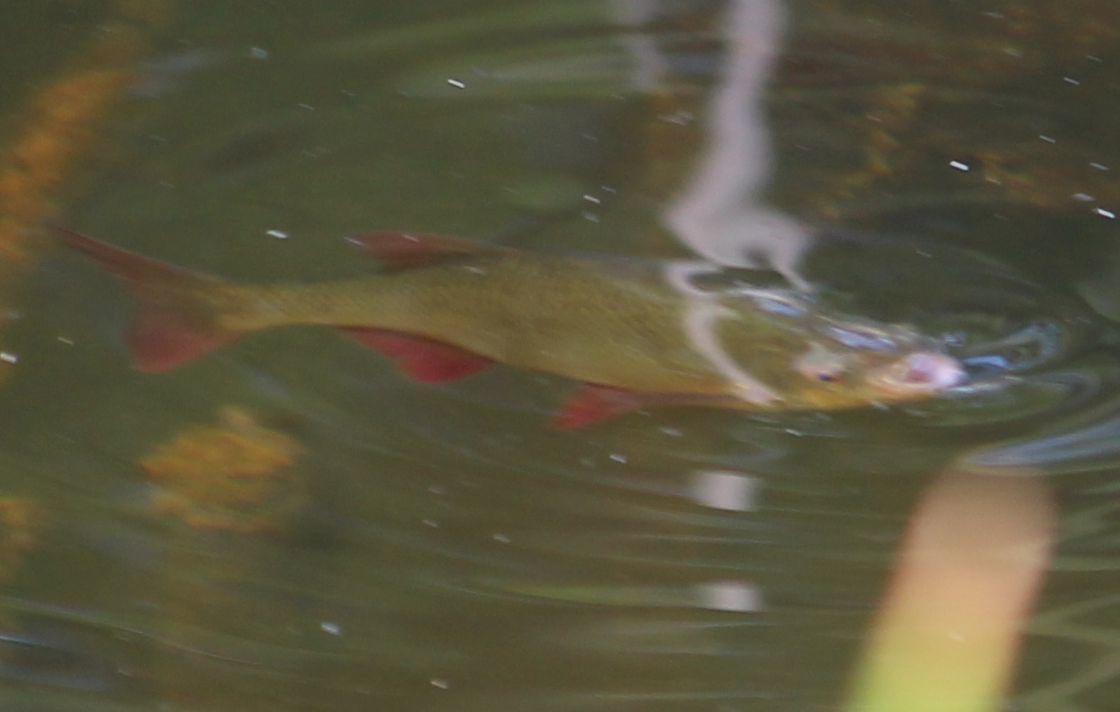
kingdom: Animalia
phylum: Chordata
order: Cypriniformes
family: Cyprinidae
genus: Scardinius
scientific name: Scardinius erythrophthalmus
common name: Rudd
